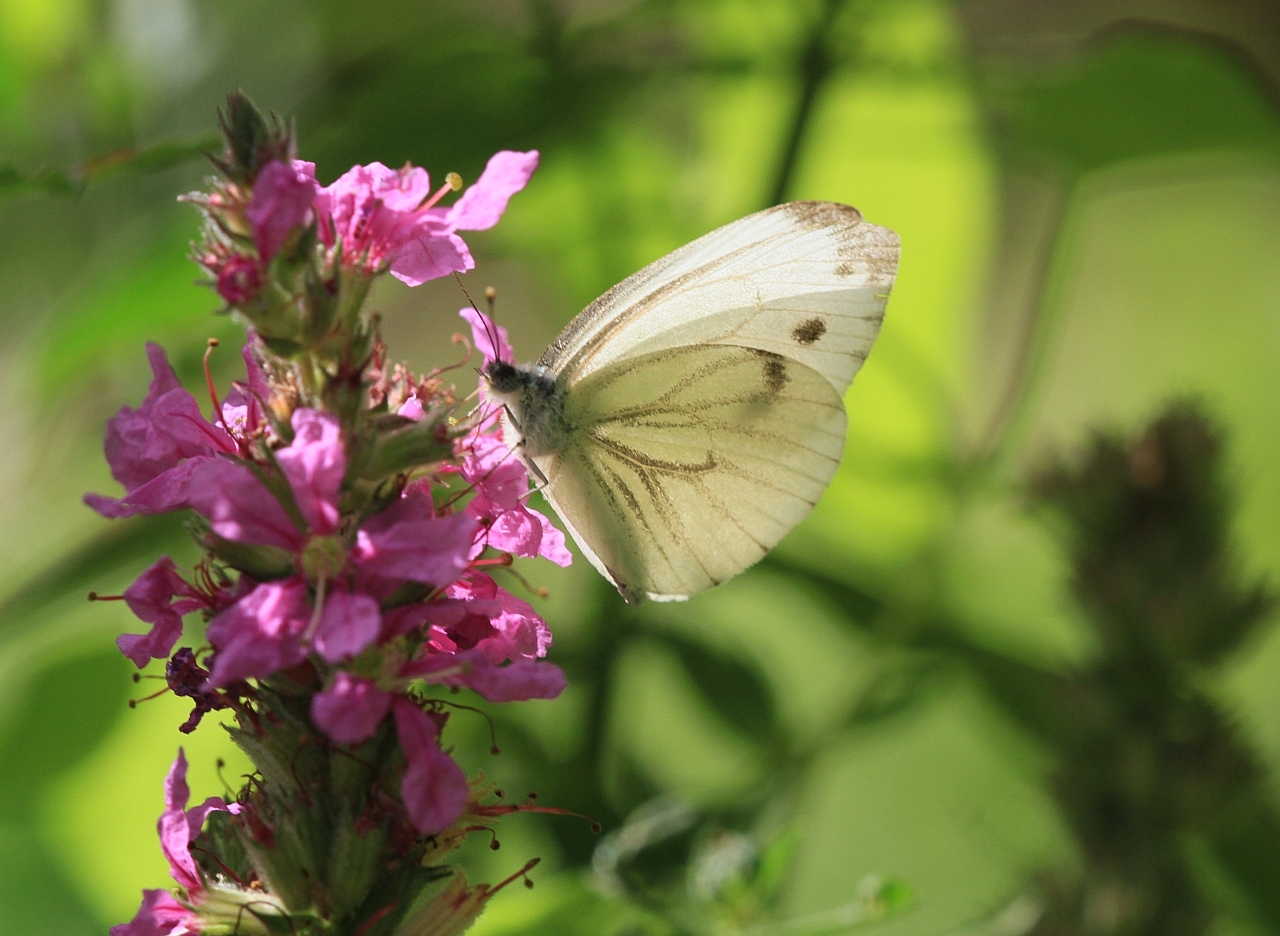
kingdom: Animalia
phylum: Arthropoda
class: Insecta
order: Lepidoptera
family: Pieridae
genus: Pieris
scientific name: Pieris napi
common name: Green-veined white
